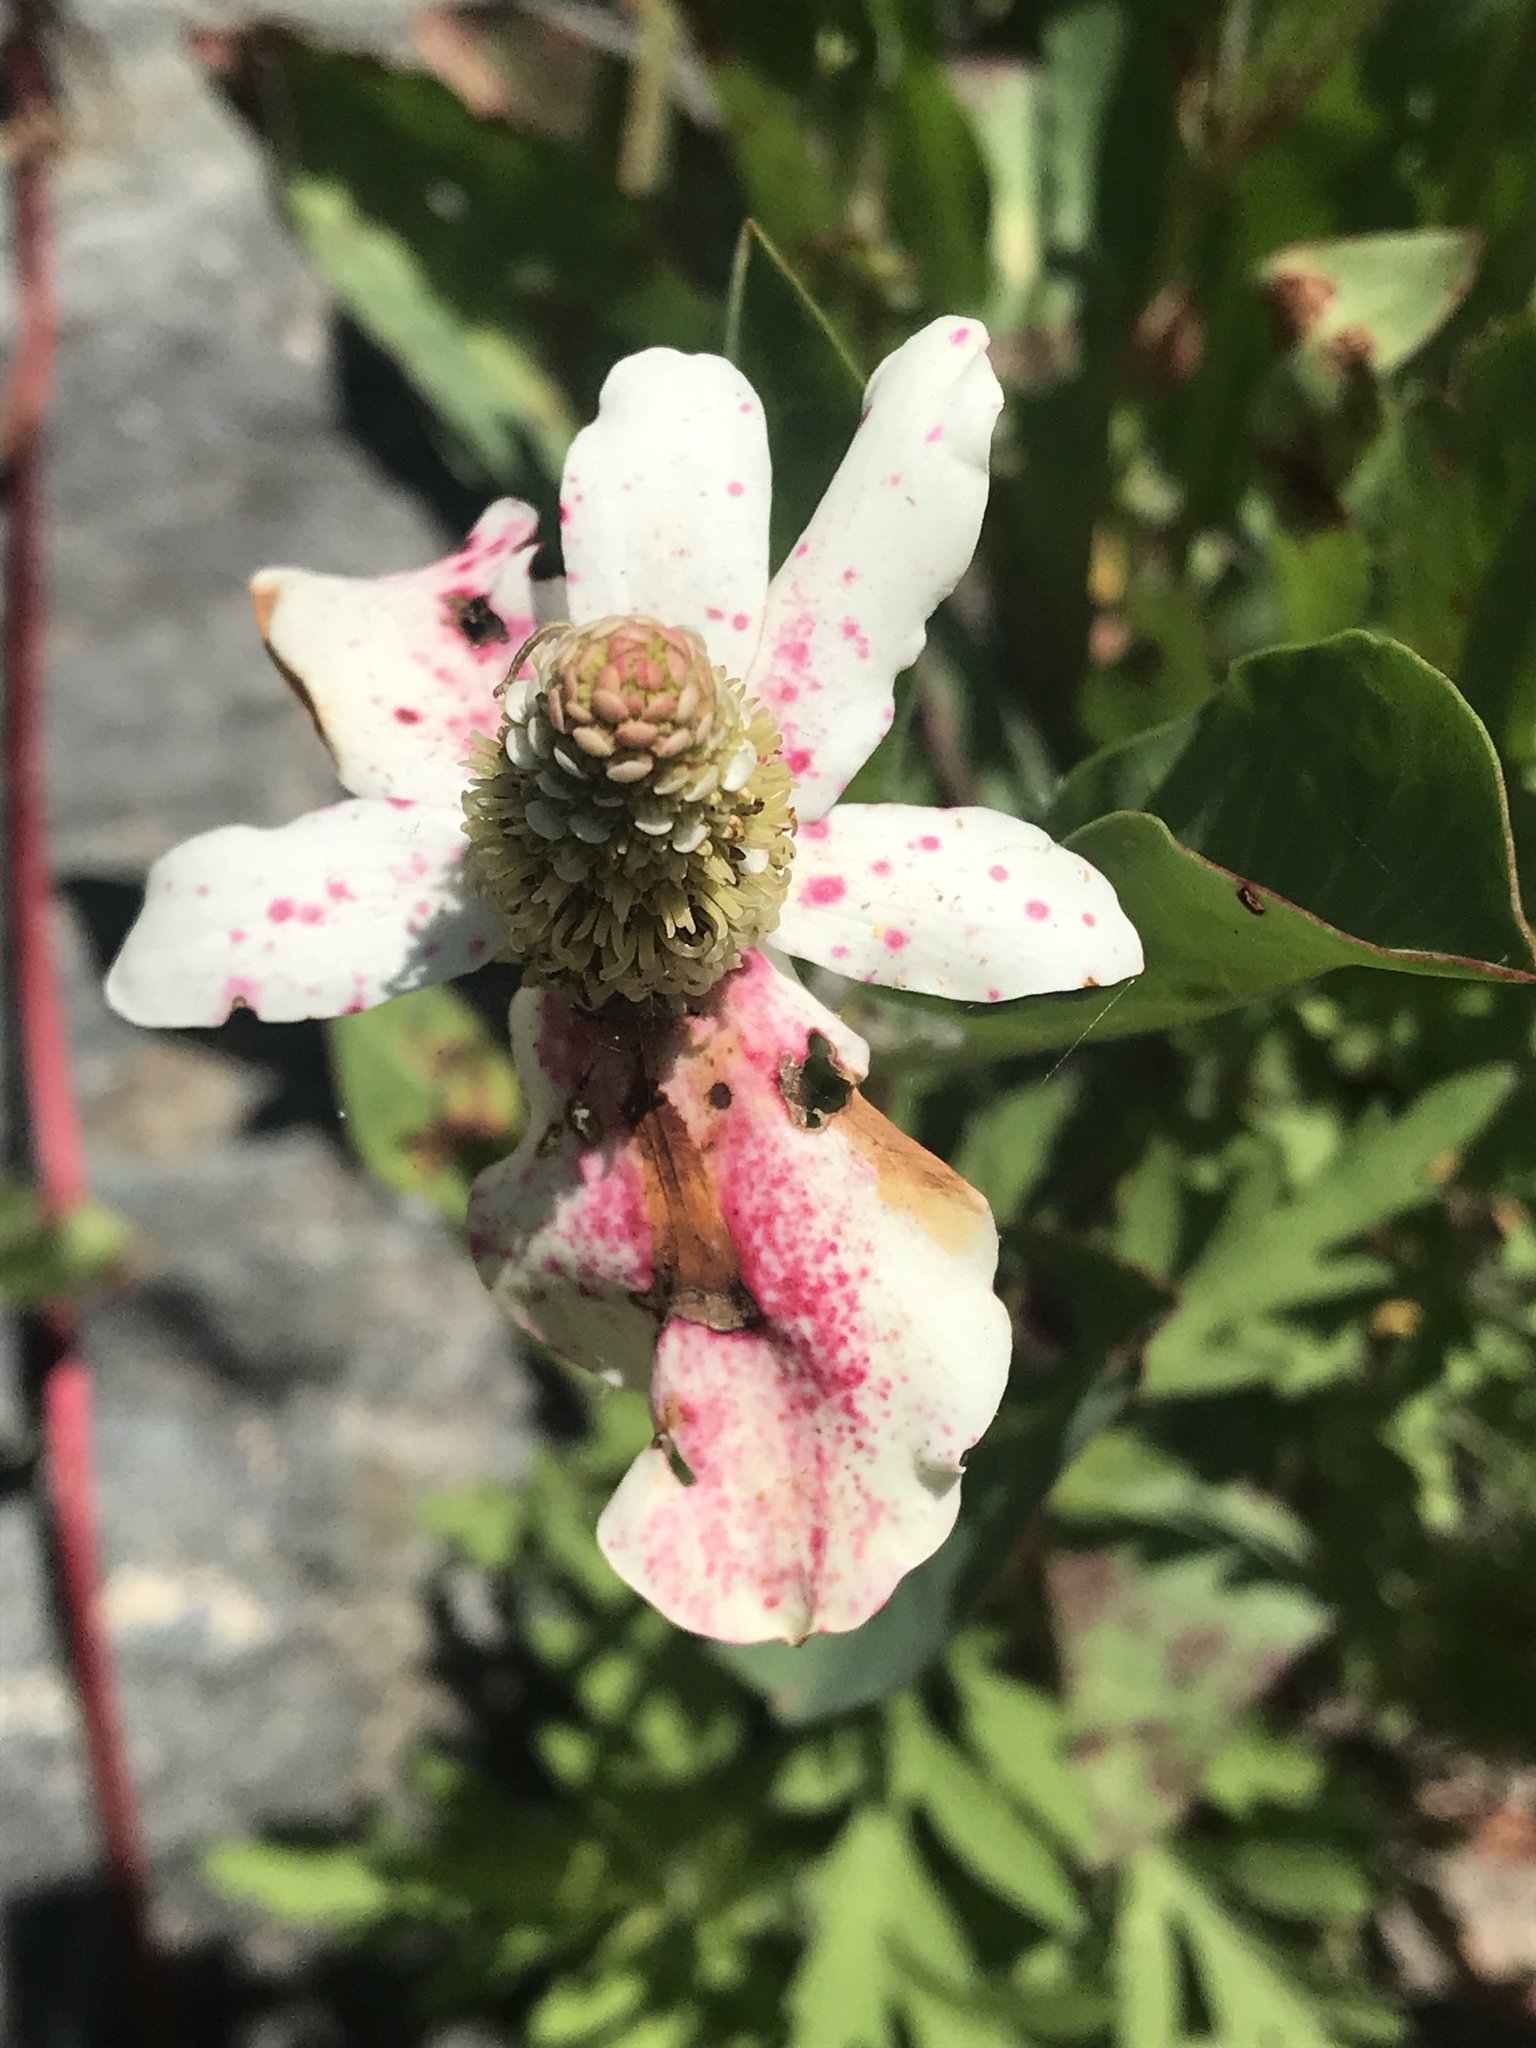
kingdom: Plantae
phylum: Tracheophyta
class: Magnoliopsida
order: Piperales
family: Saururaceae
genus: Anemopsis
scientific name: Anemopsis californica
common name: Apache-beads
